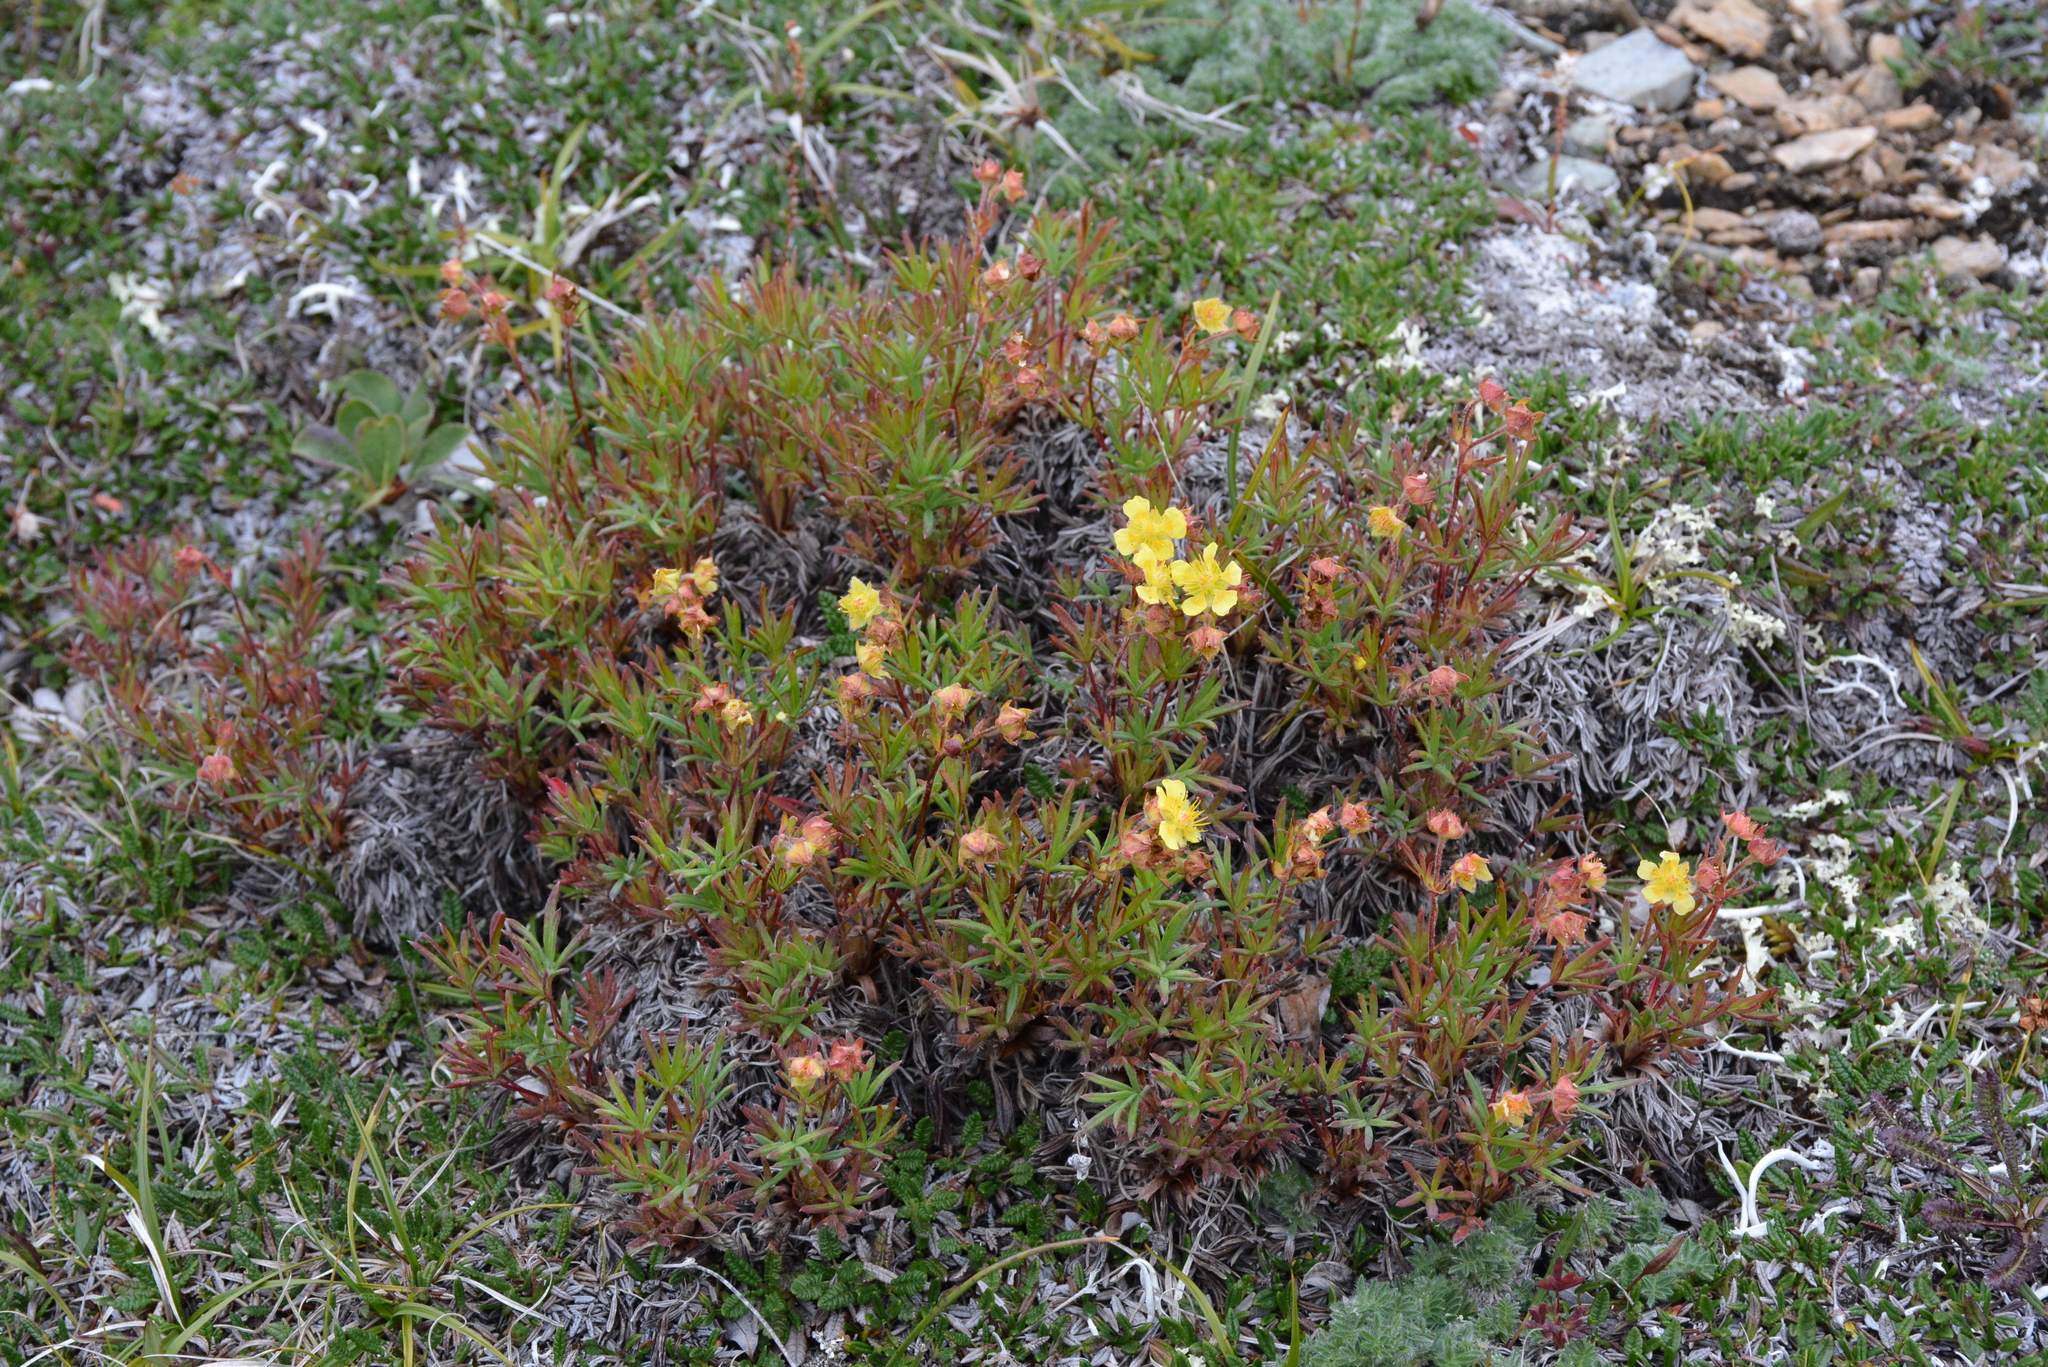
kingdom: Plantae
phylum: Tracheophyta
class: Magnoliopsida
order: Rosales
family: Rosaceae
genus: Potentilla
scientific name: Potentilla biflora
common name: Two-flowered cinquefoil
